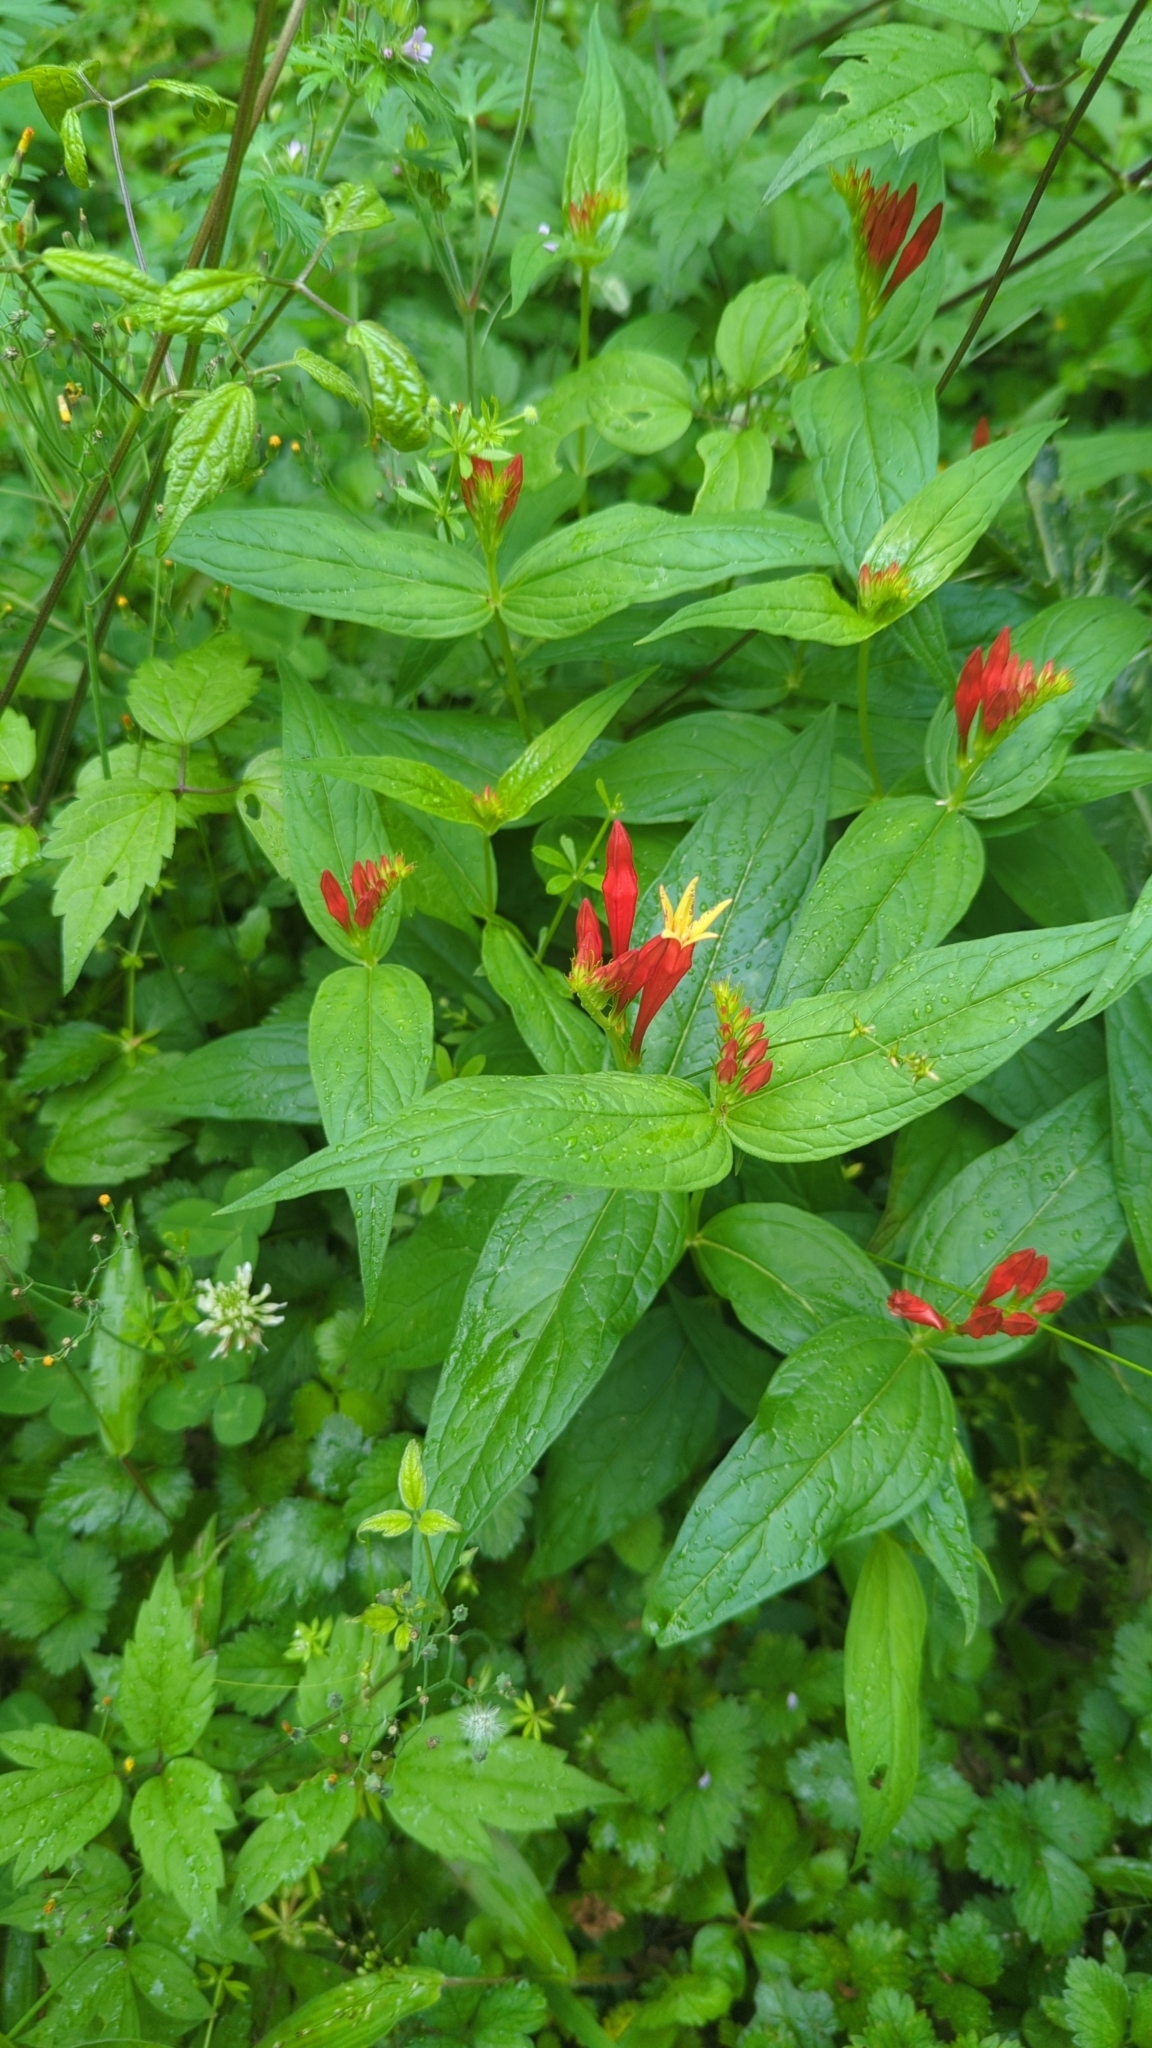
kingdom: Plantae
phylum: Tracheophyta
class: Magnoliopsida
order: Gentianales
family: Loganiaceae
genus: Spigelia
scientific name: Spigelia marilandica
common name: Indian-pink
